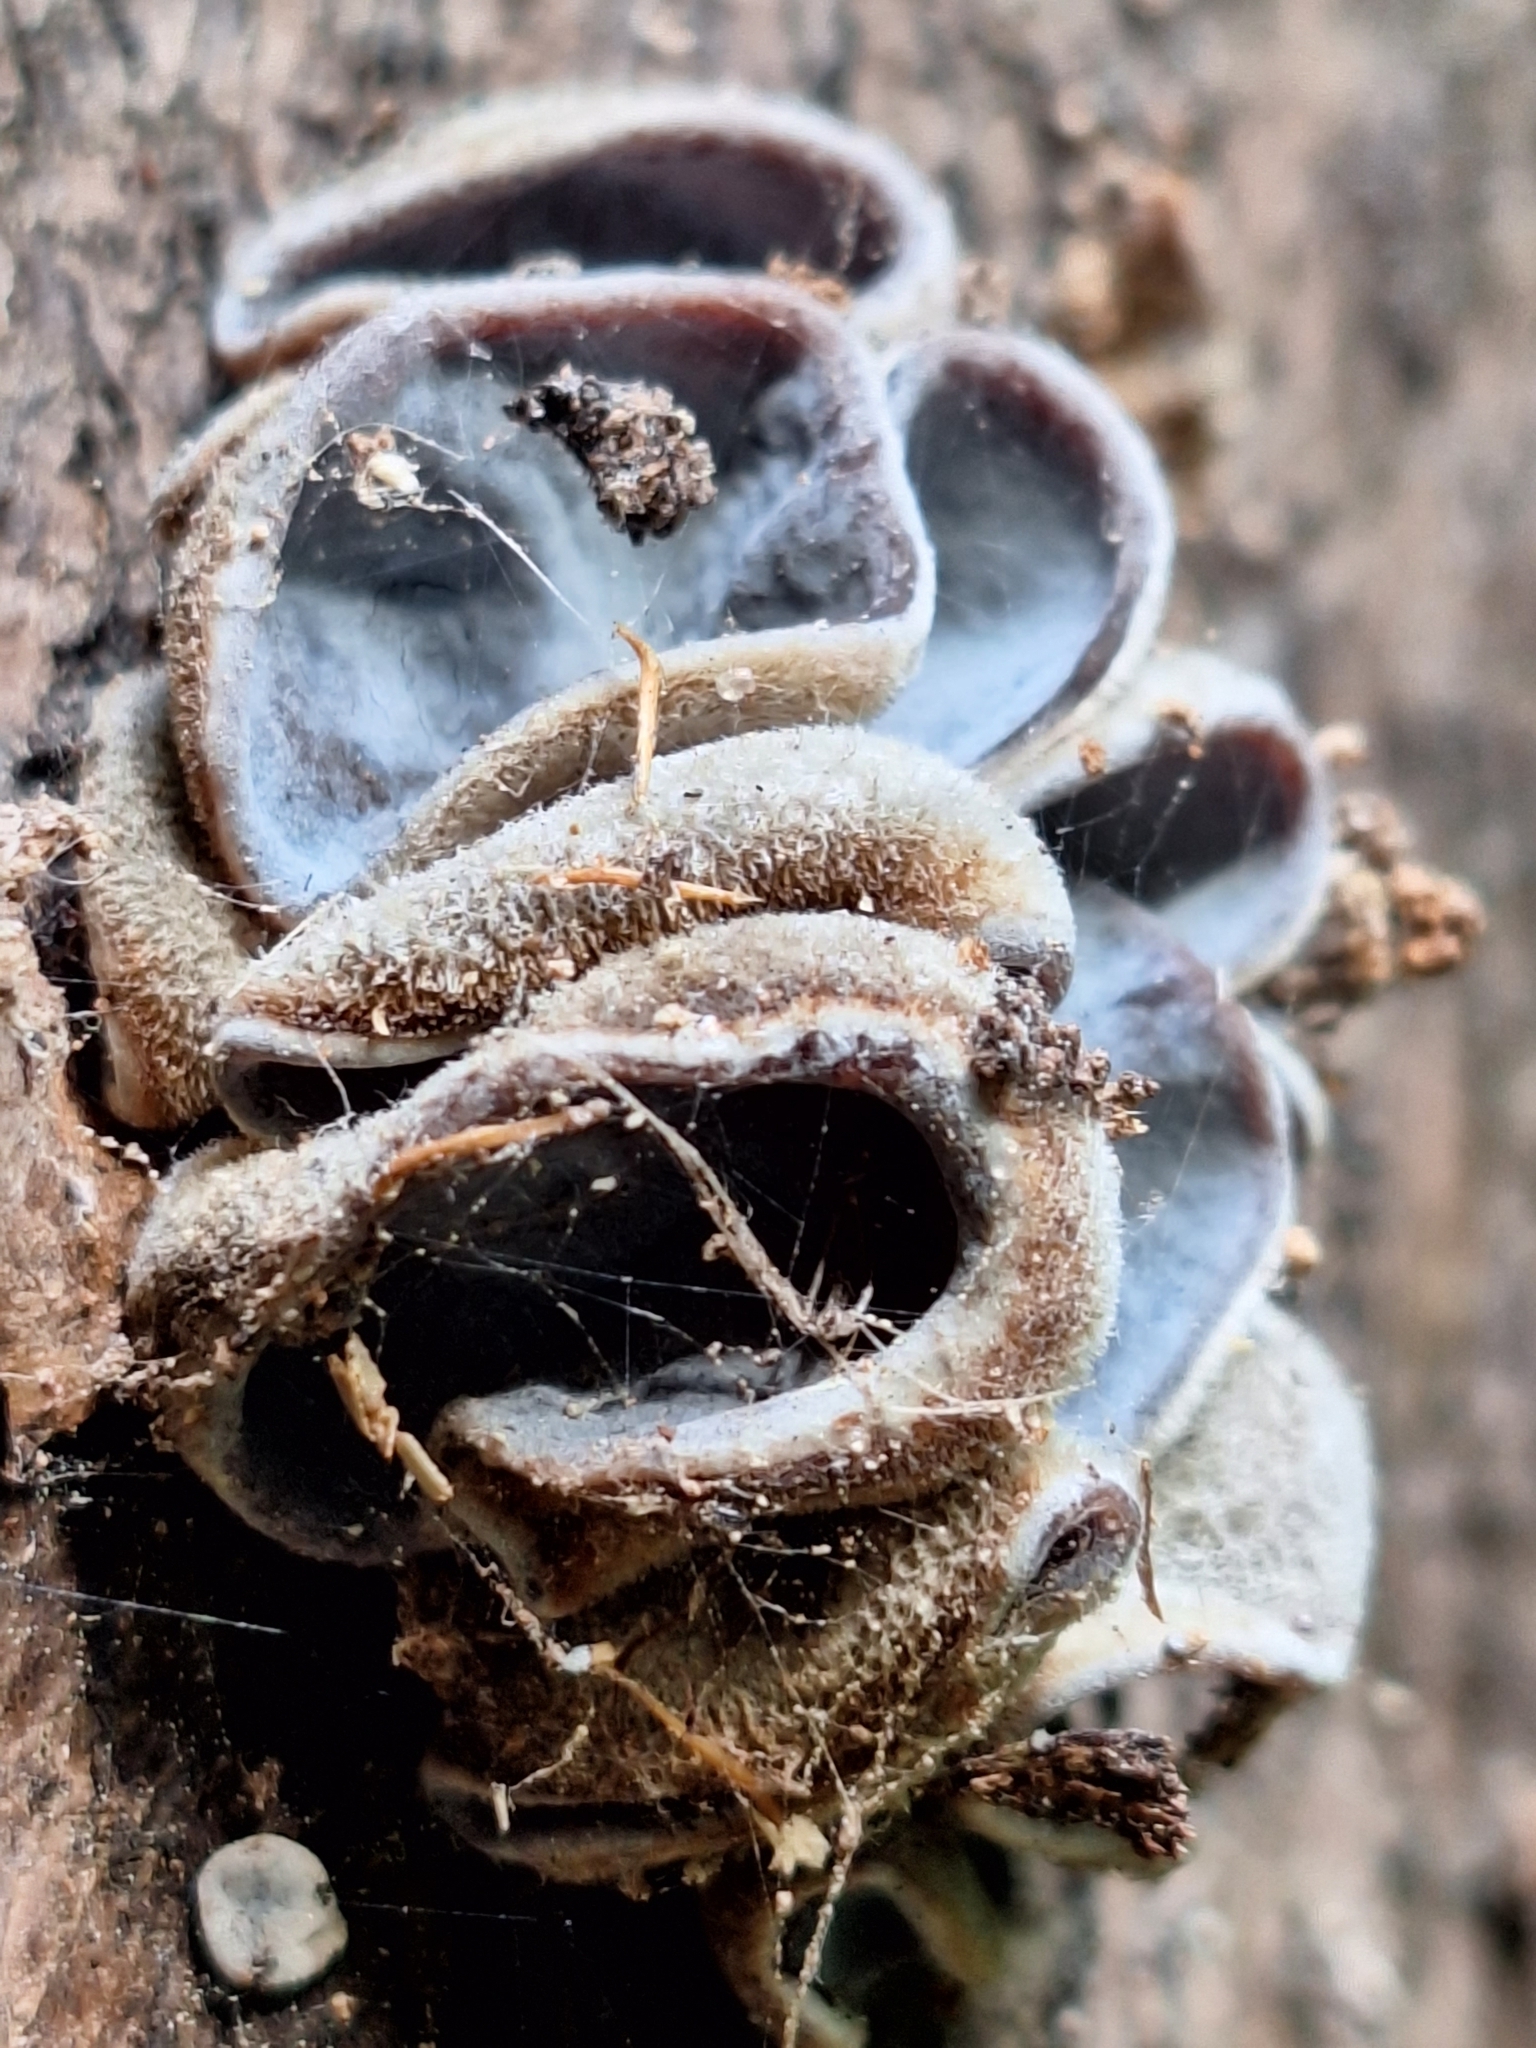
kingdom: Fungi
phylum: Basidiomycota
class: Agaricomycetes
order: Auriculariales
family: Auriculariaceae
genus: Auricularia
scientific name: Auricularia cornea
